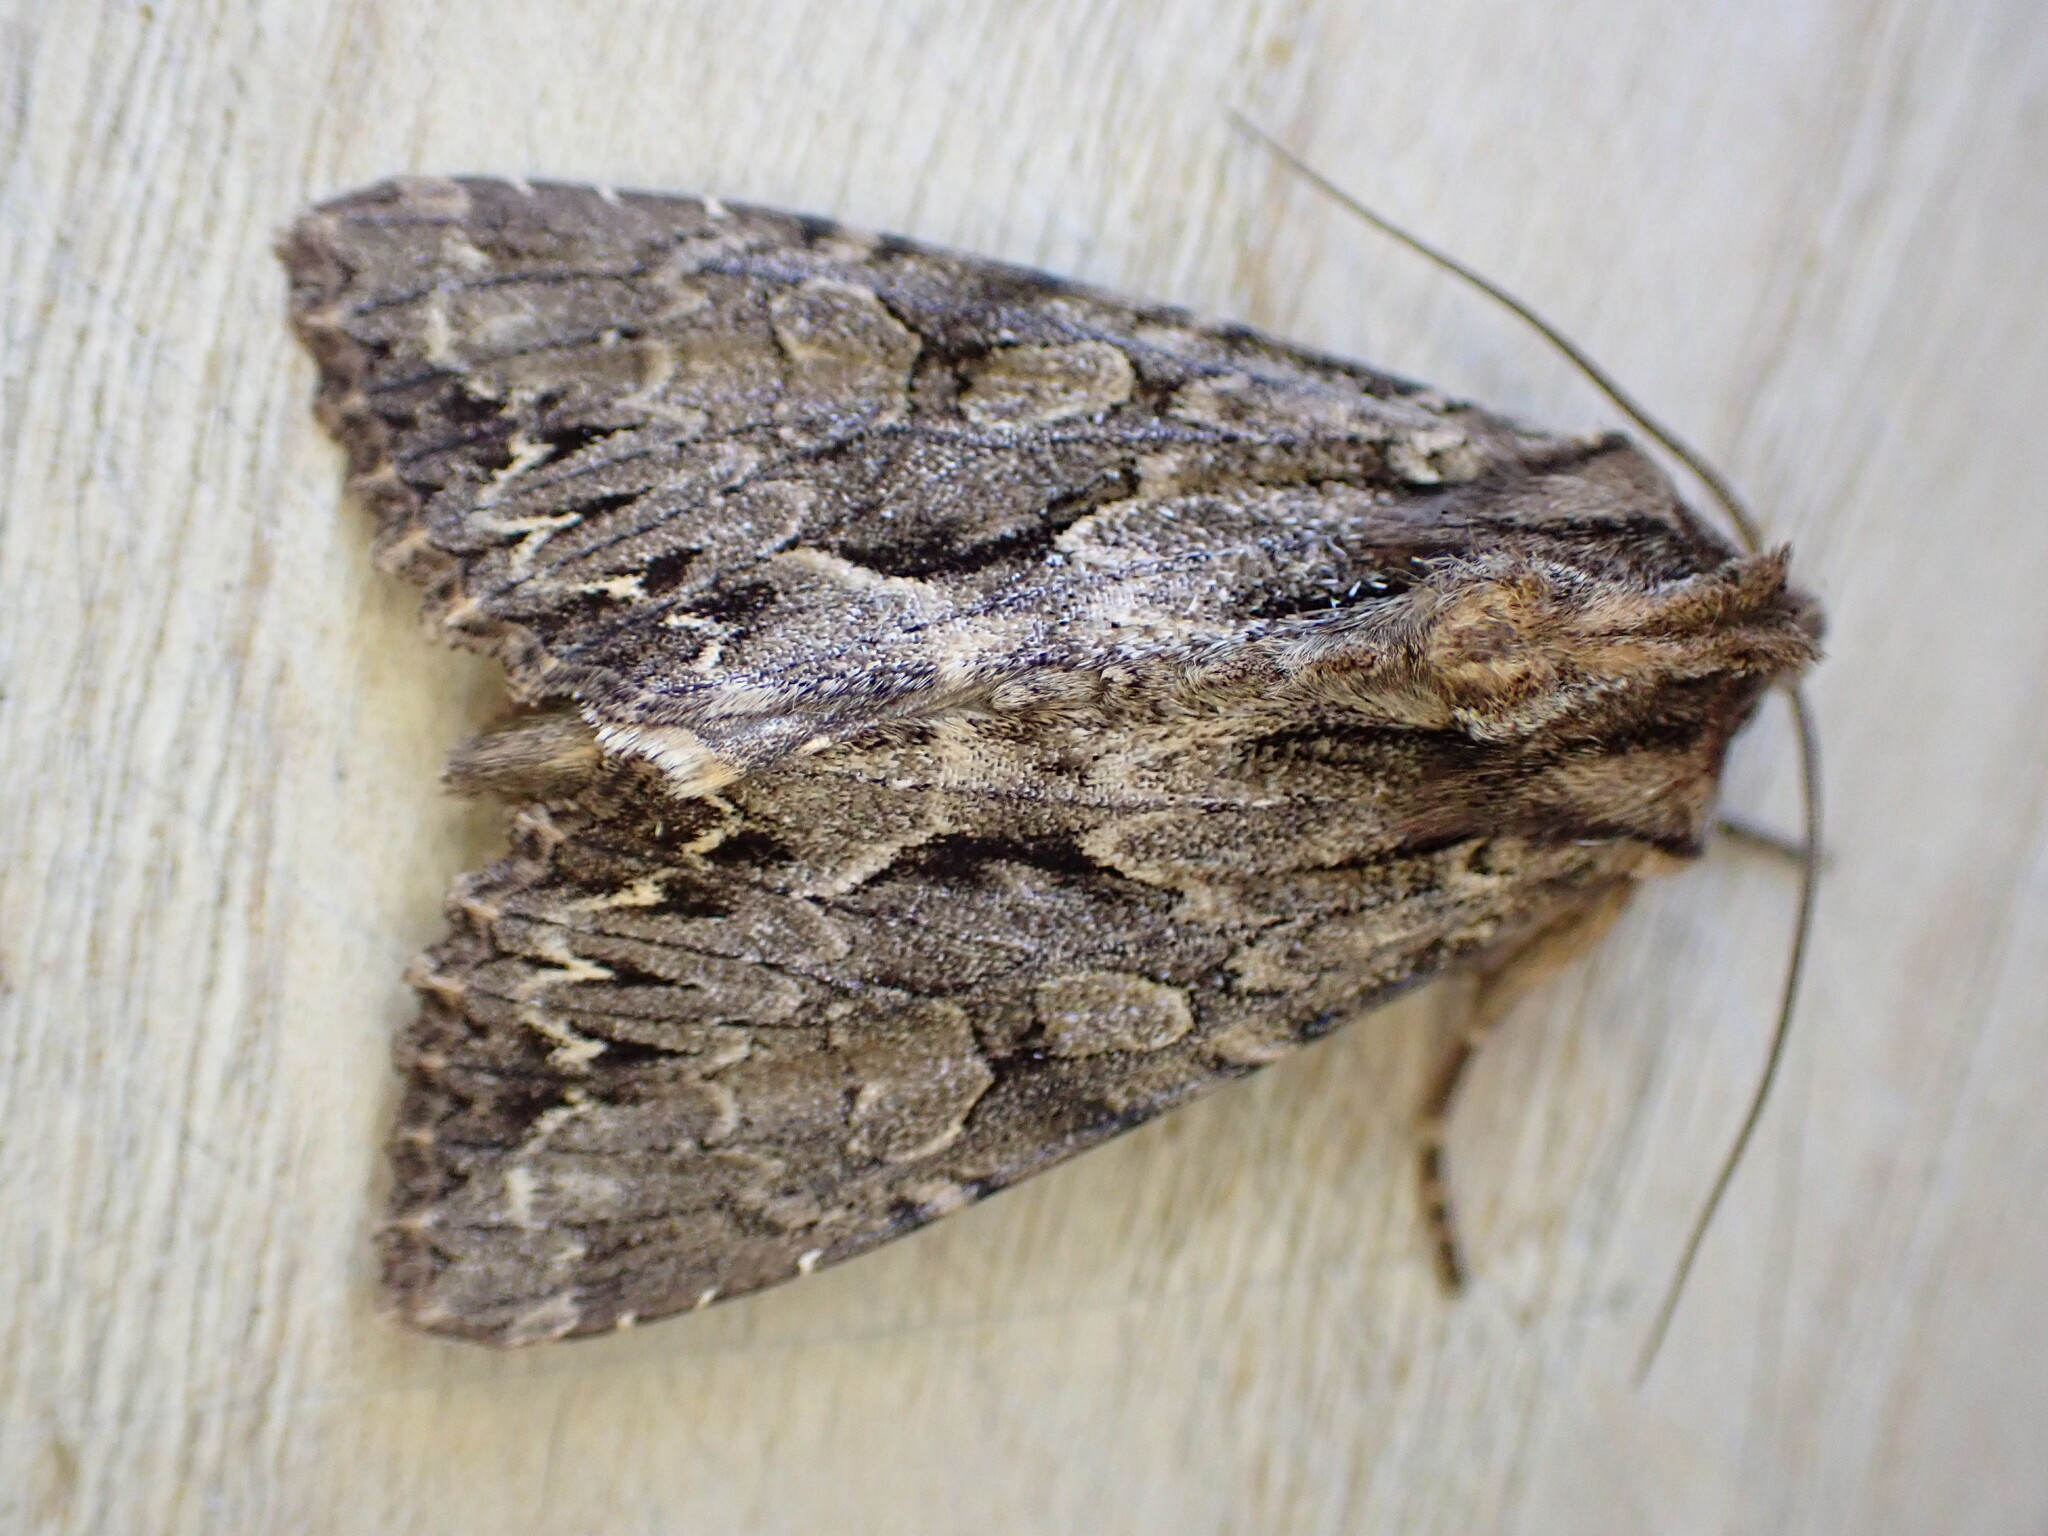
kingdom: Animalia
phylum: Arthropoda
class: Insecta
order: Lepidoptera
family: Noctuidae
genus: Apamea
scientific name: Apamea monoglypha
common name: Dark arches
